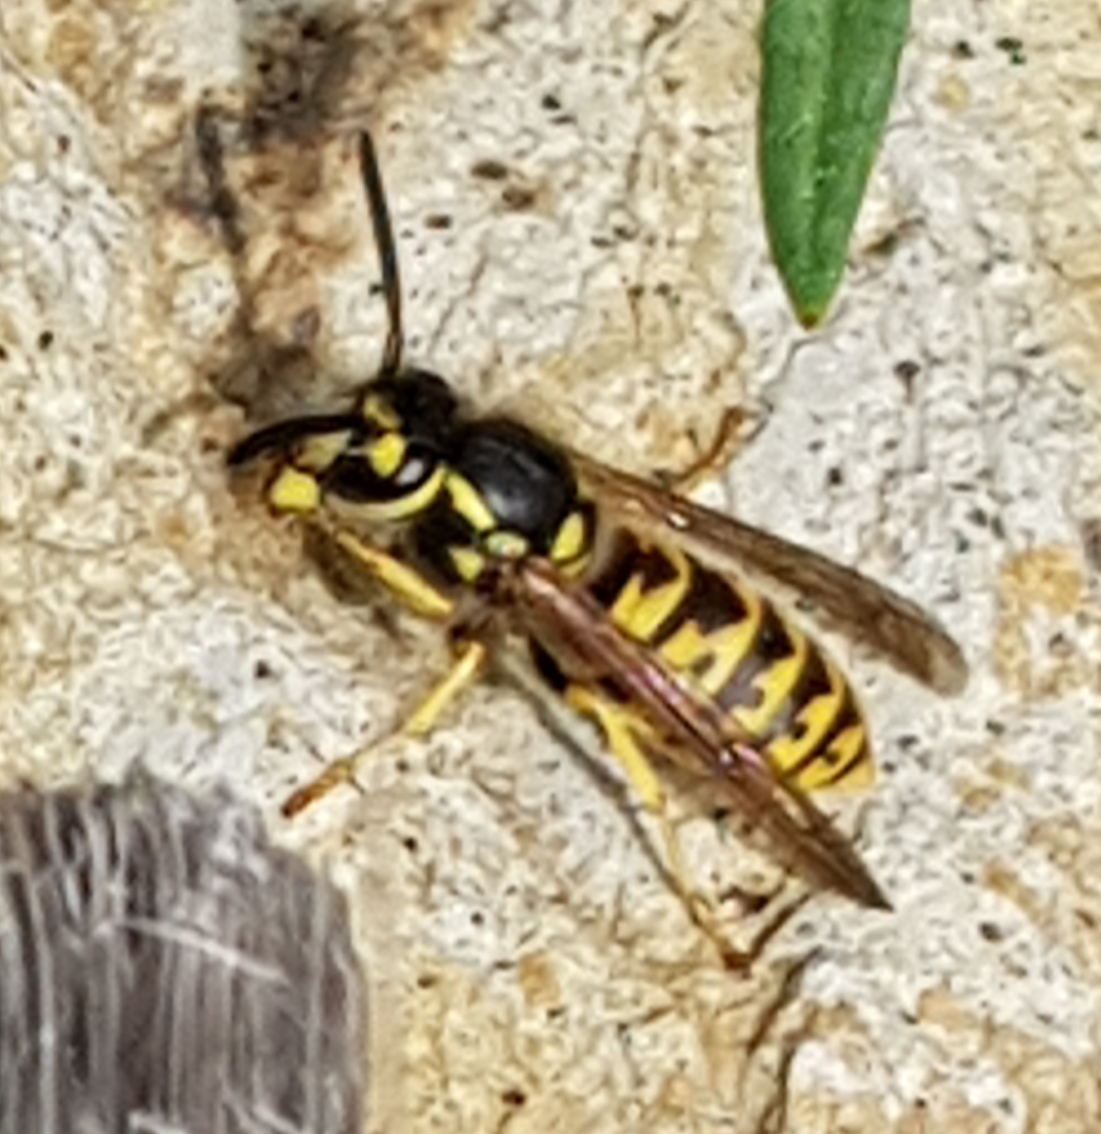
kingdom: Animalia
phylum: Arthropoda
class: Insecta
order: Hymenoptera
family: Vespidae
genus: Vespula
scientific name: Vespula germanica
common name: German wasp
